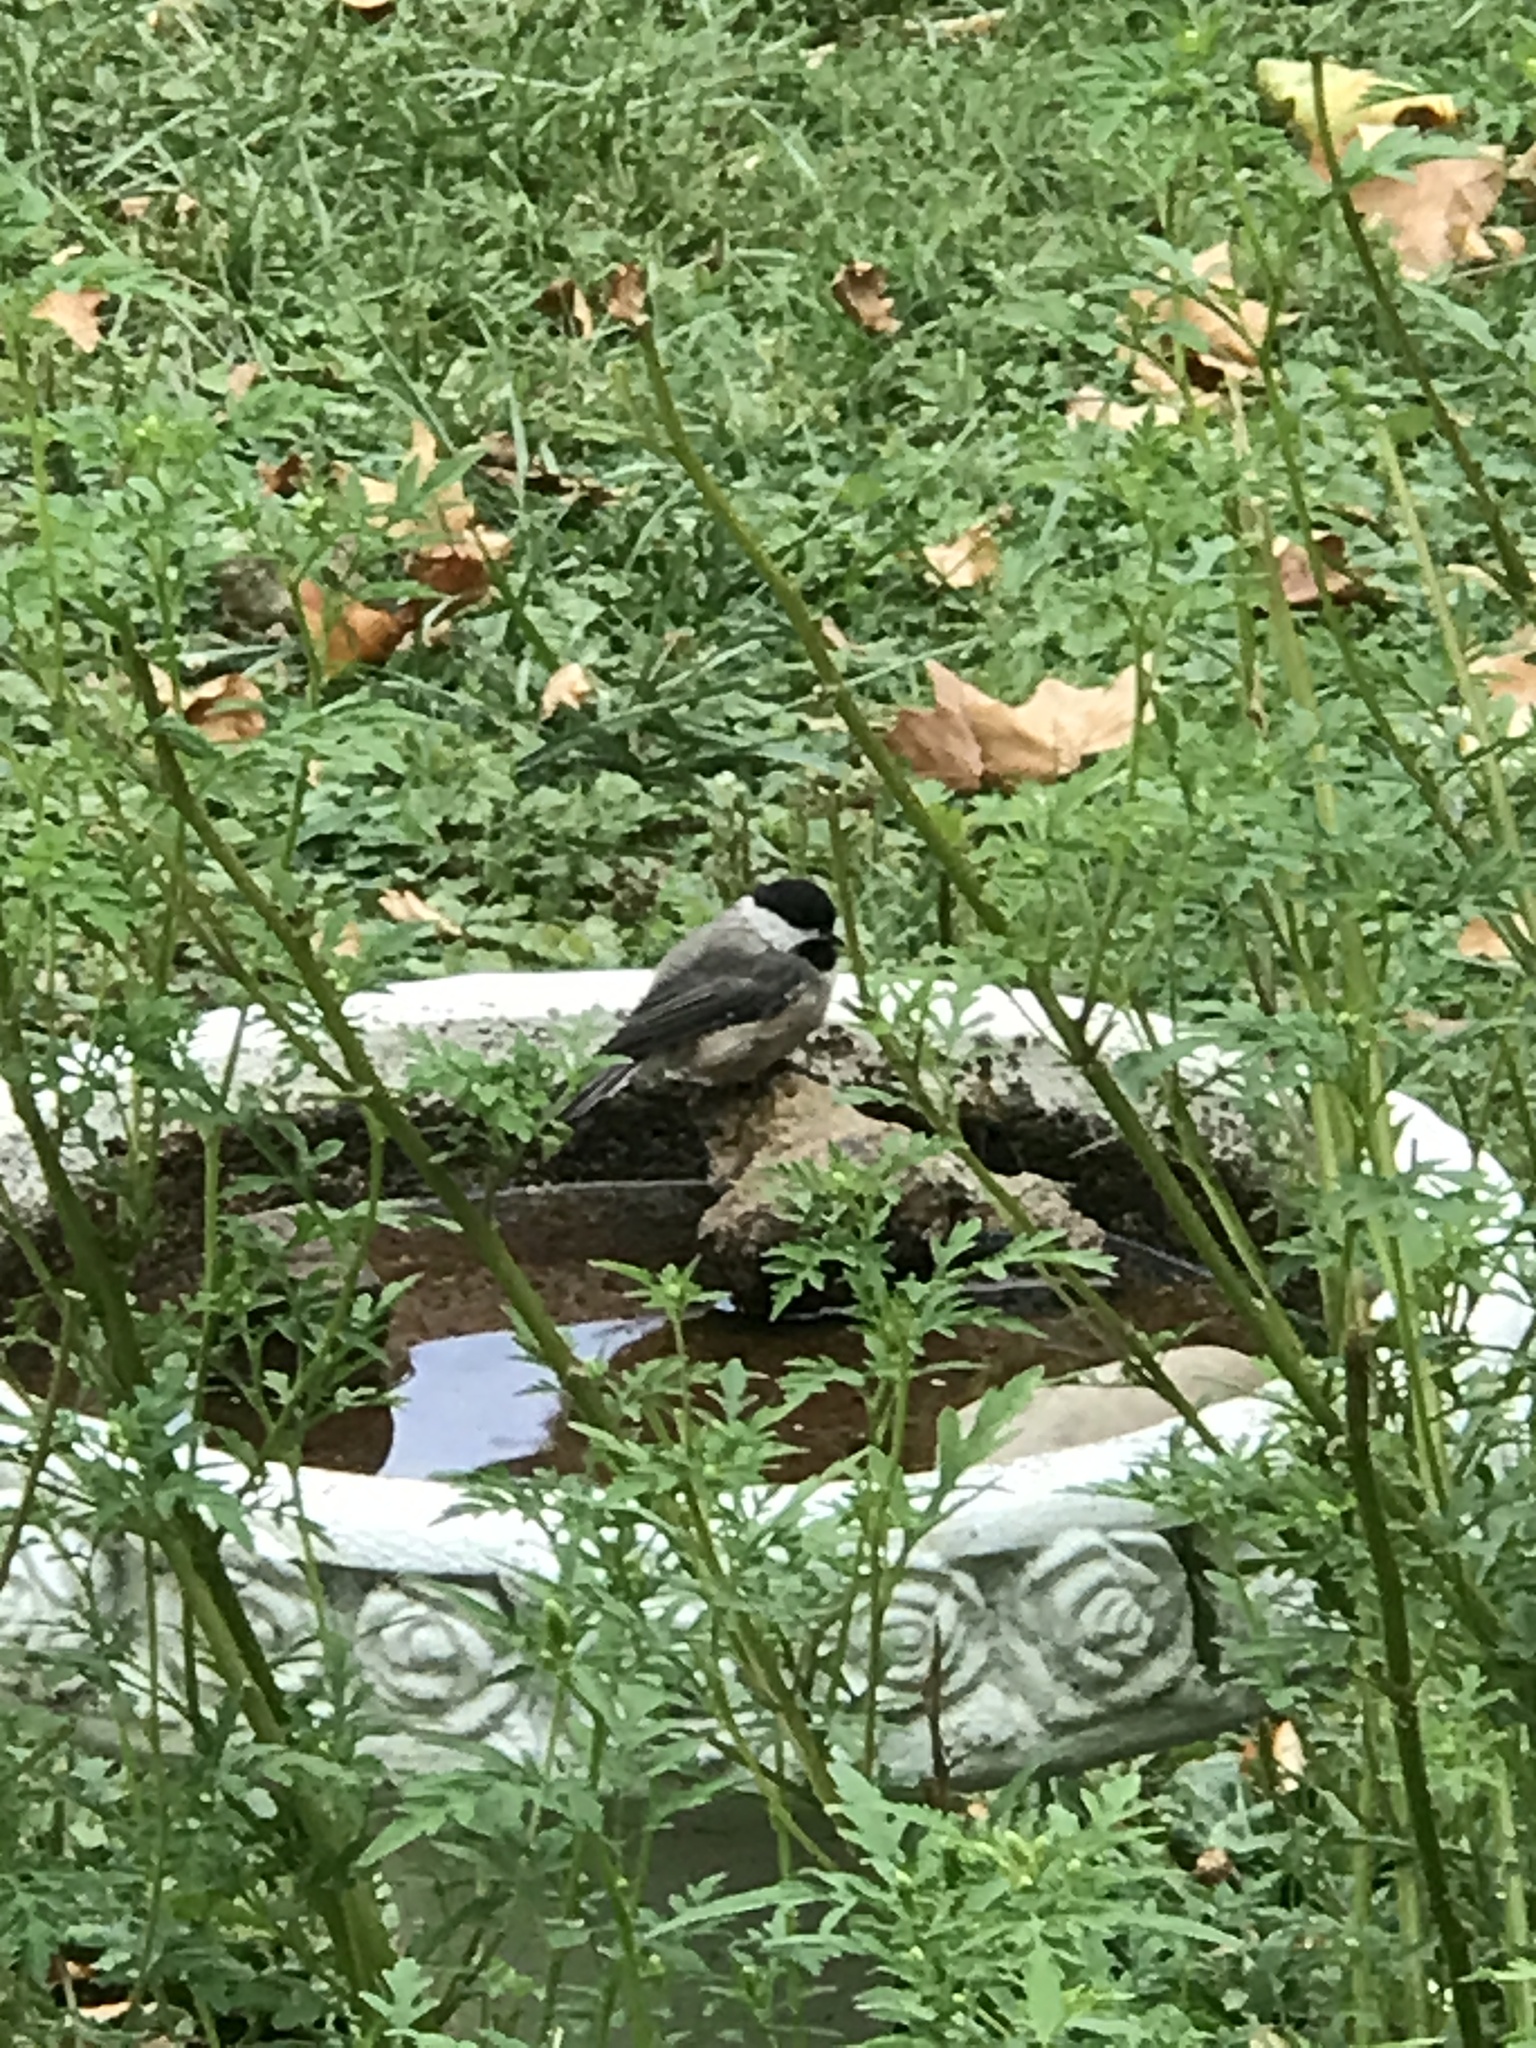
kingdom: Animalia
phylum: Chordata
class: Aves
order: Passeriformes
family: Paridae
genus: Poecile
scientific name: Poecile carolinensis
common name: Carolina chickadee
